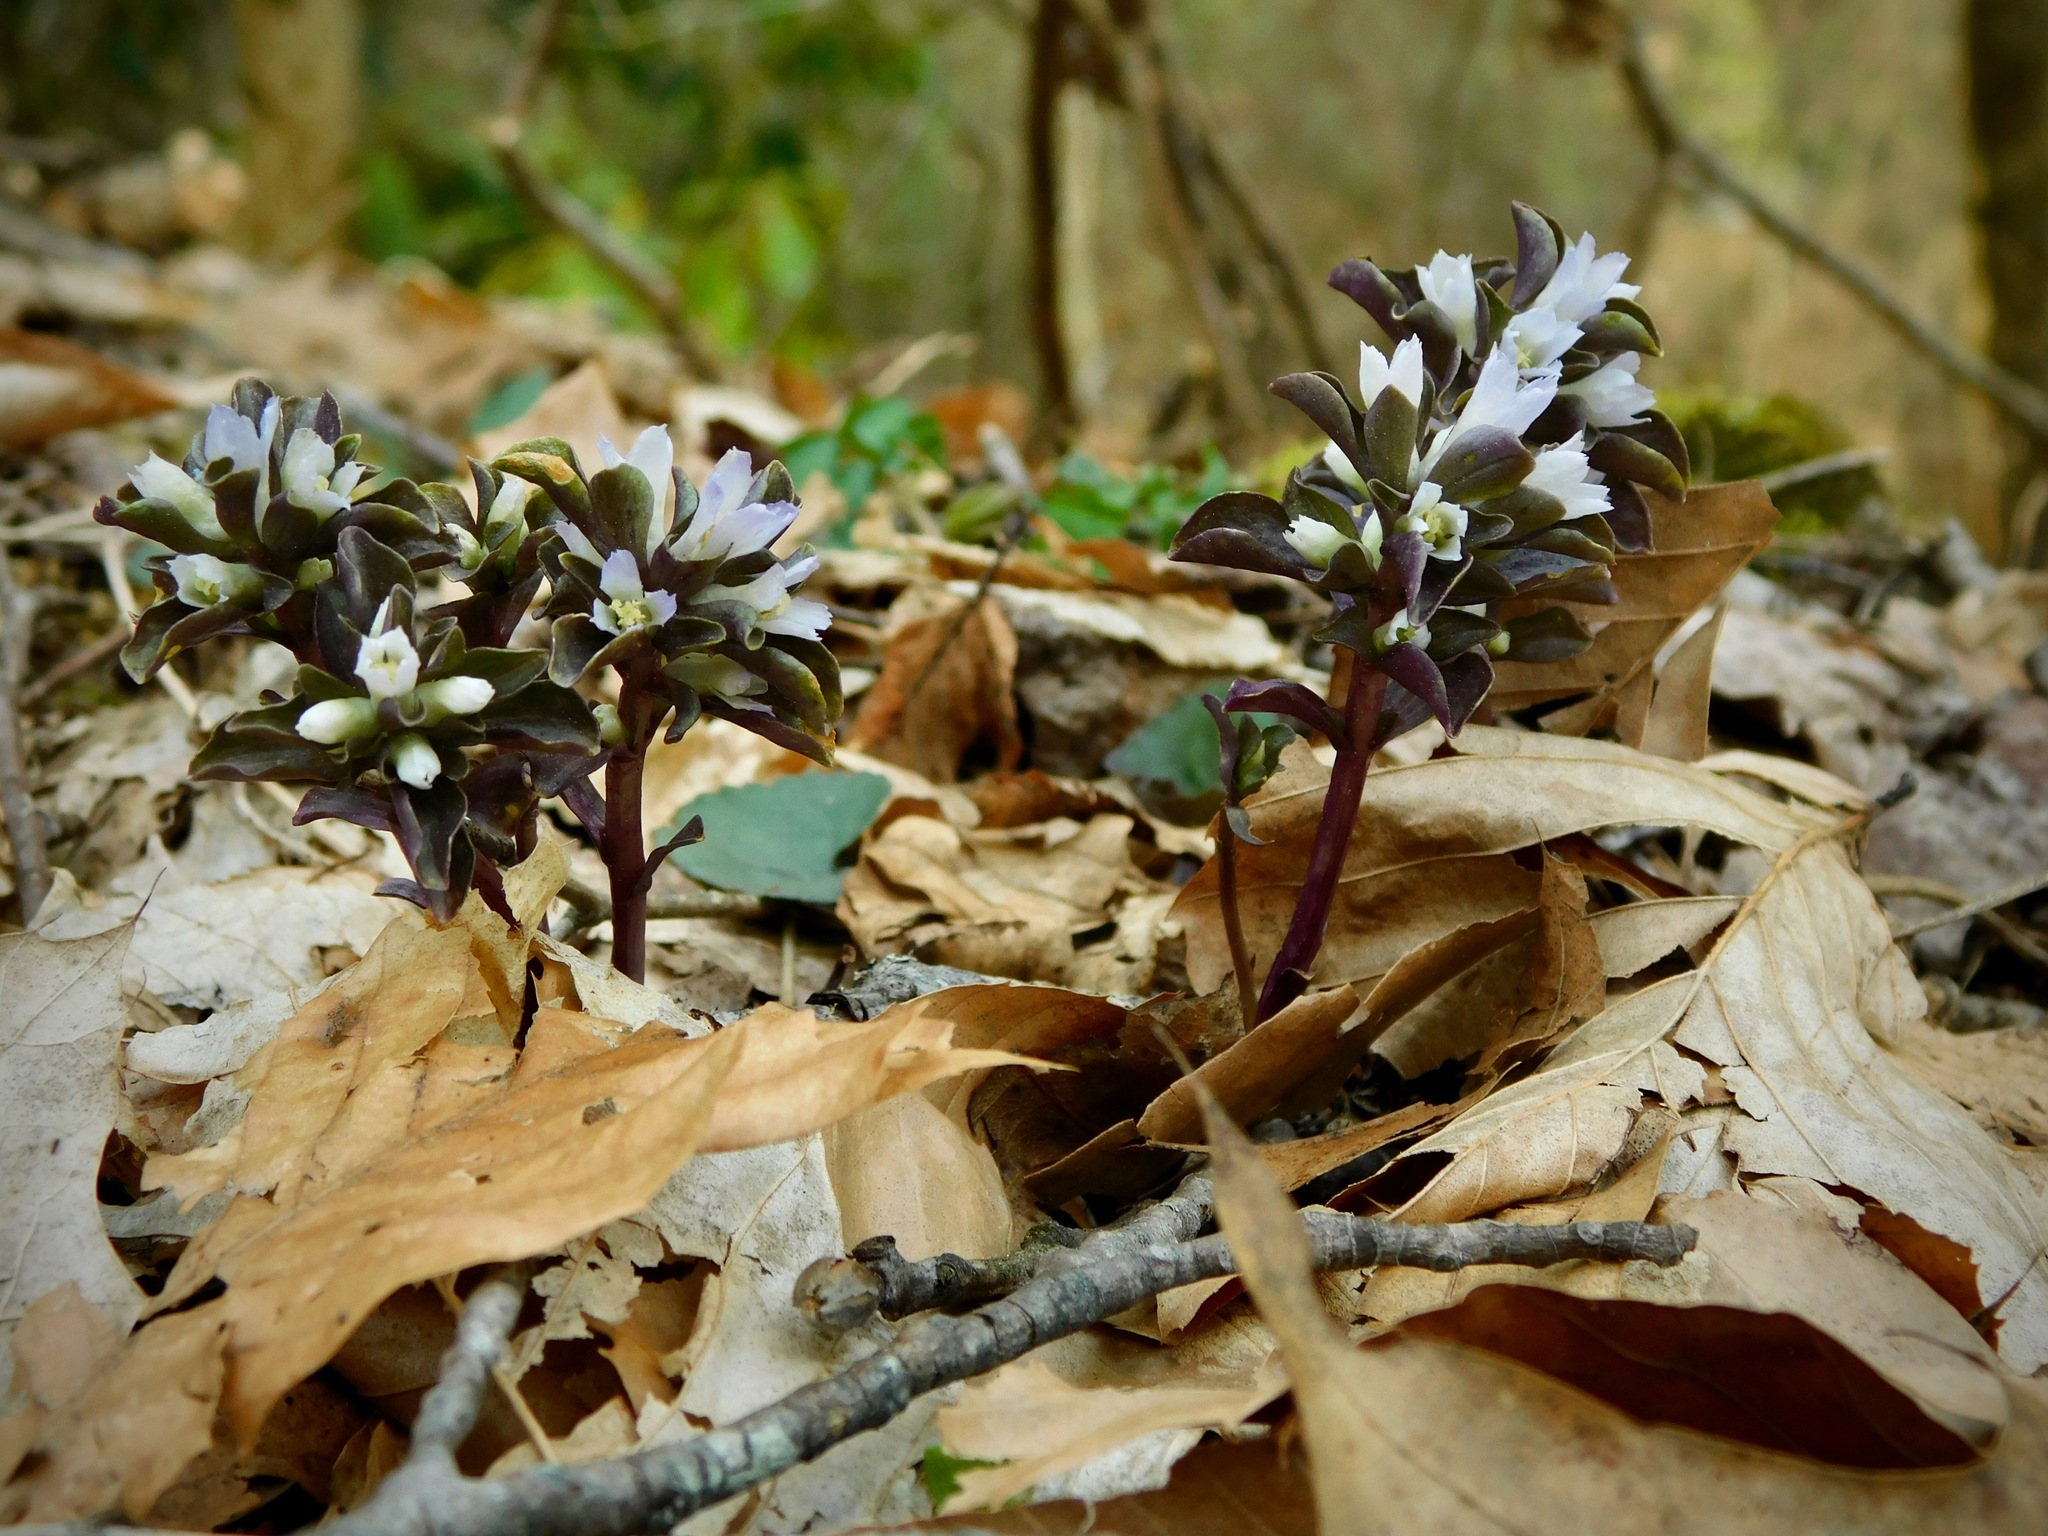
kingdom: Plantae
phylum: Tracheophyta
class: Magnoliopsida
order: Gentianales
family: Gentianaceae
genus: Obolaria
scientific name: Obolaria virginica
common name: Pennywort
